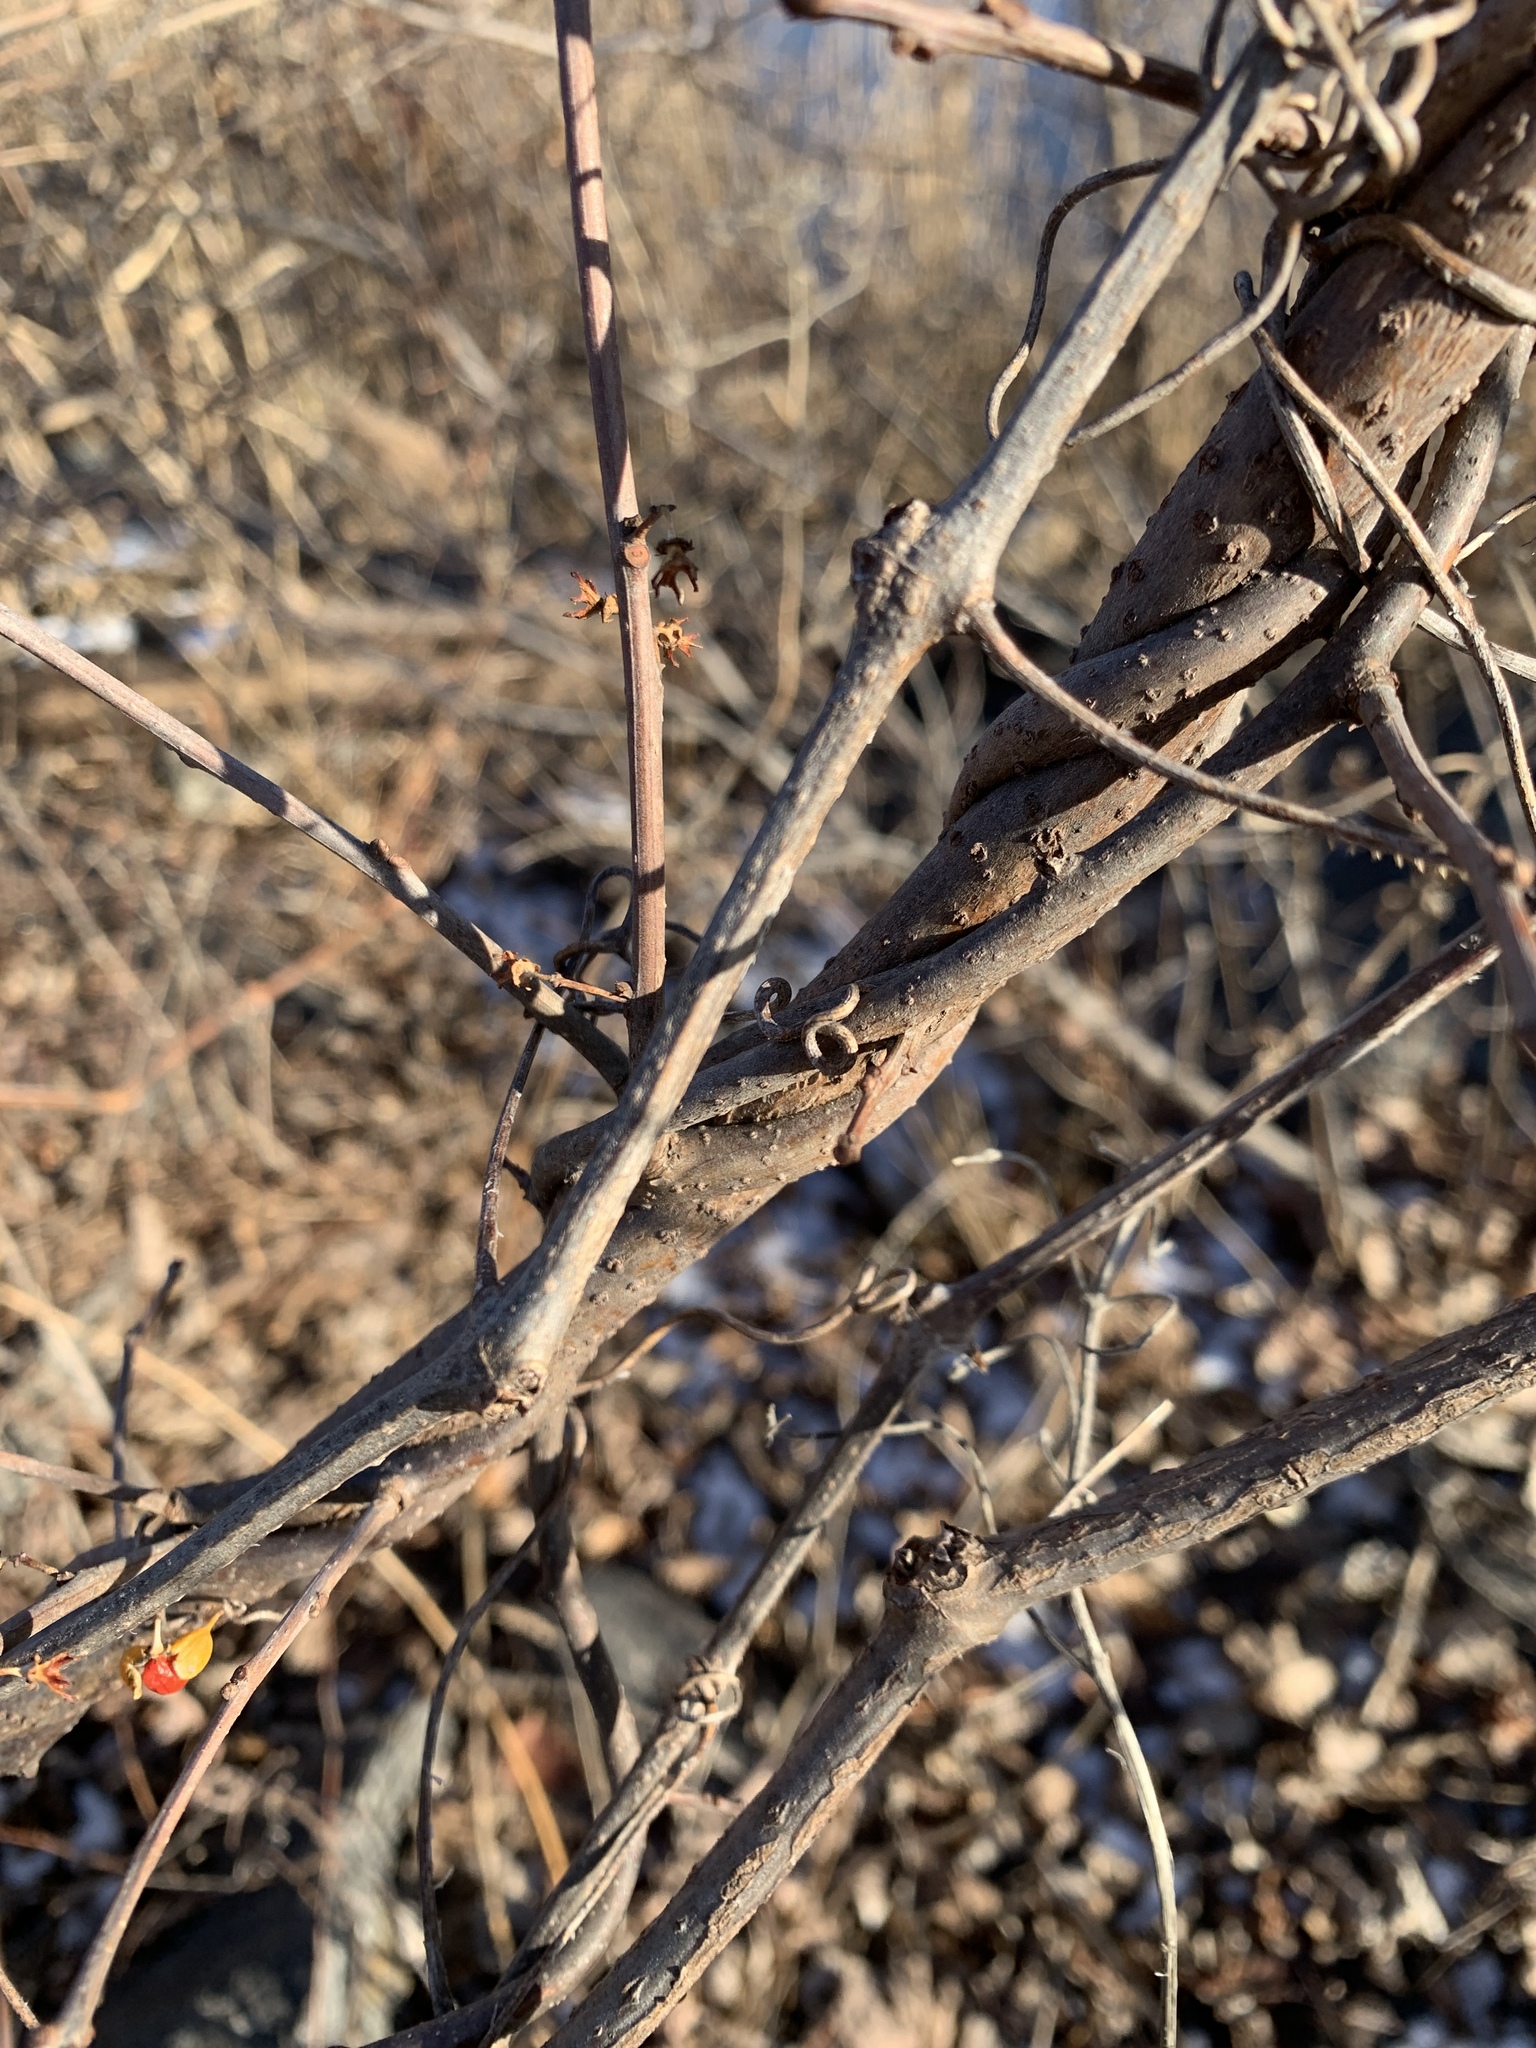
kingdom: Plantae
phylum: Tracheophyta
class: Magnoliopsida
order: Celastrales
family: Celastraceae
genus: Celastrus
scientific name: Celastrus orbiculatus
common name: Oriental bittersweet
